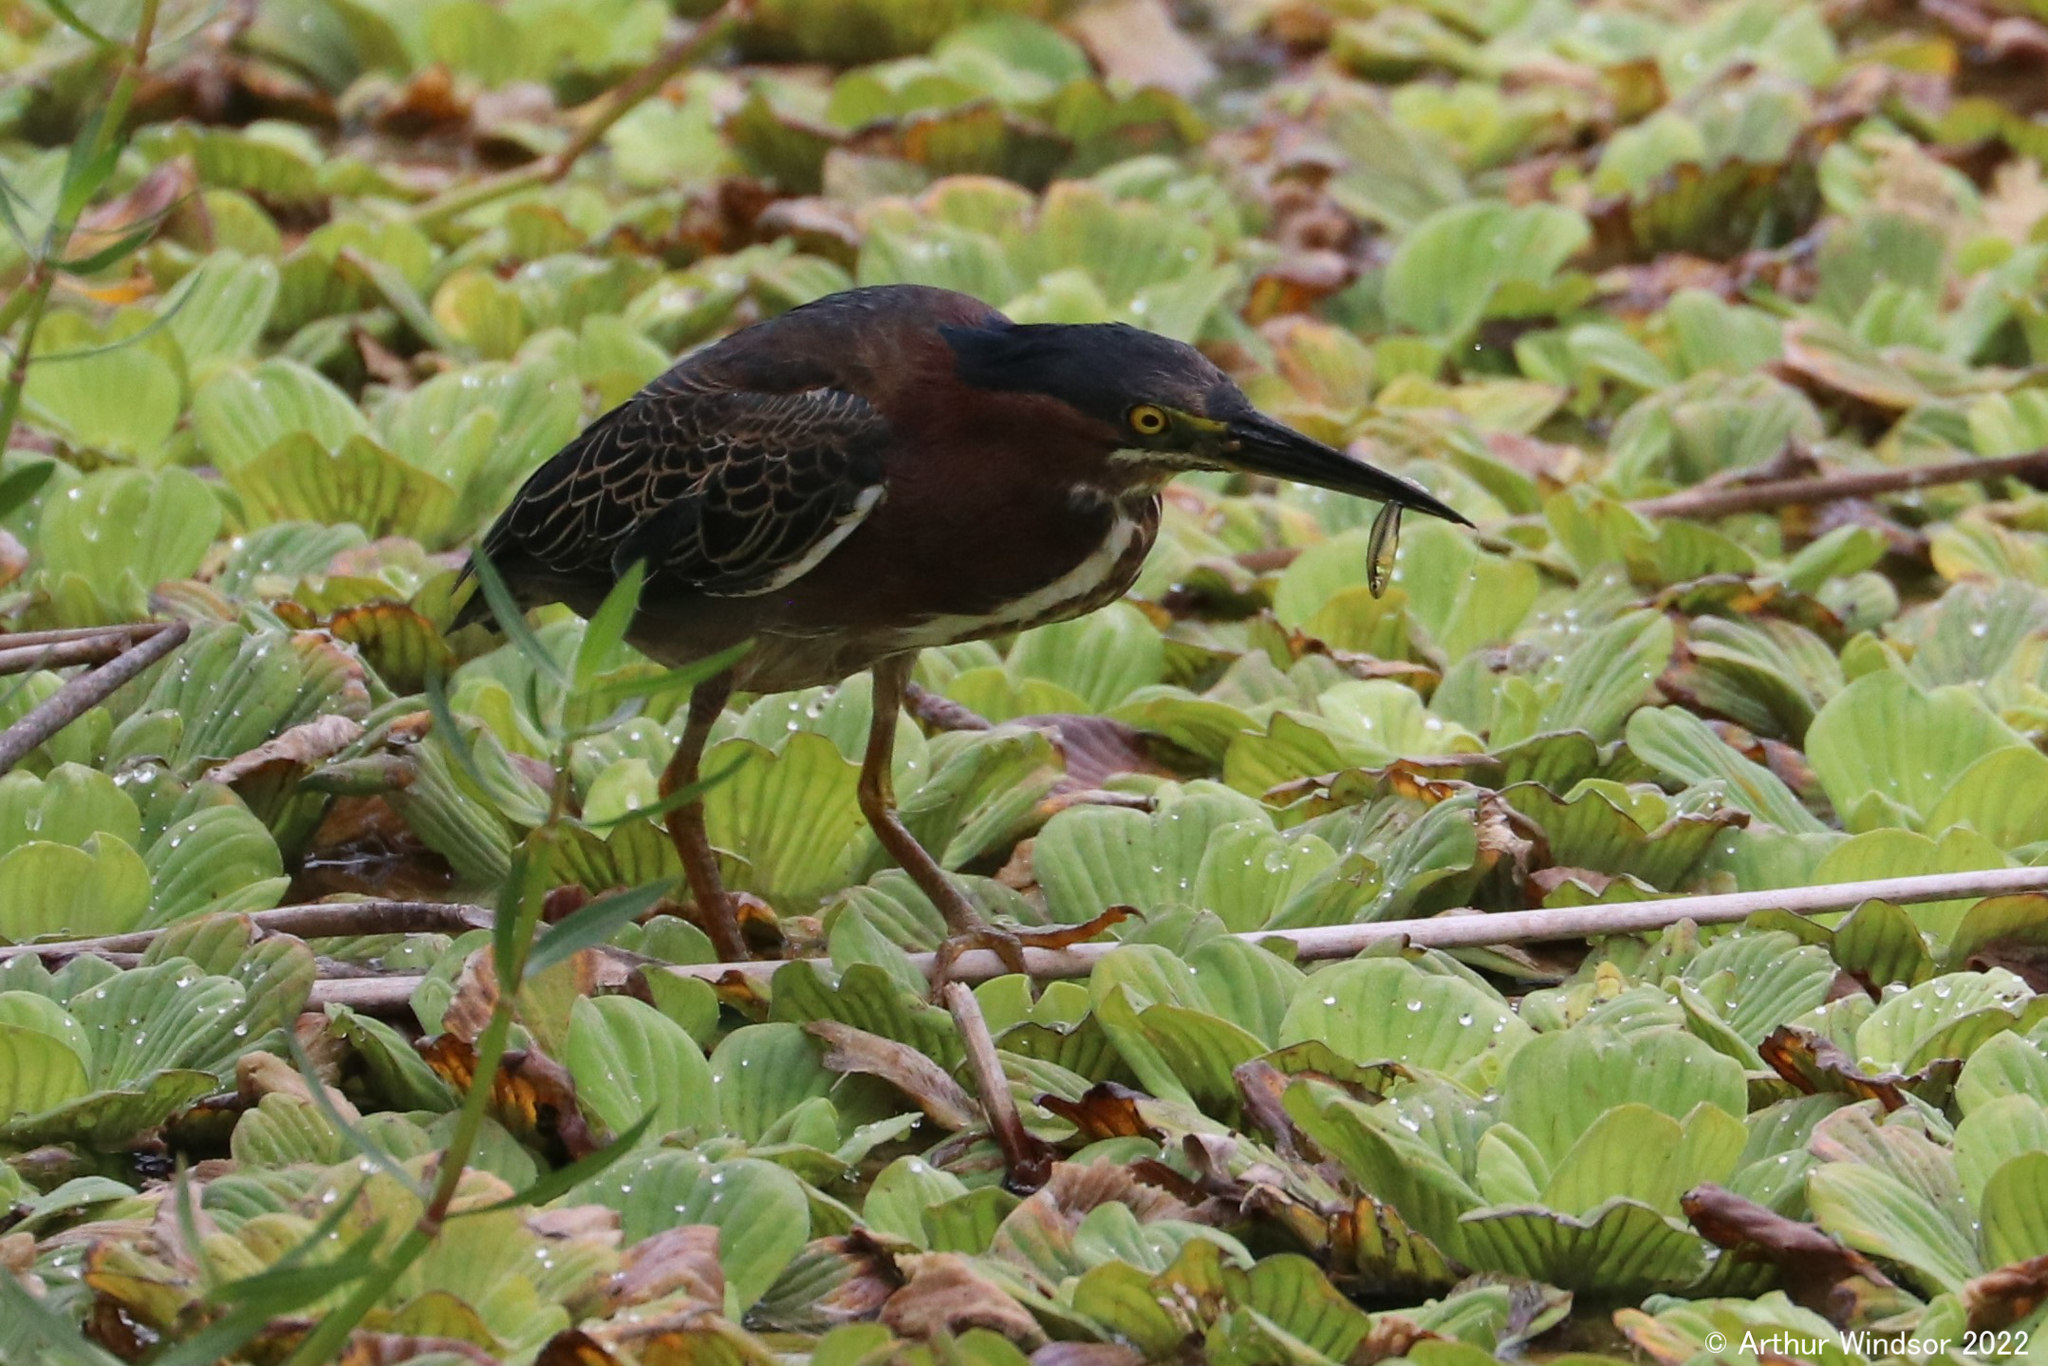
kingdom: Animalia
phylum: Chordata
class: Aves
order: Pelecaniformes
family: Ardeidae
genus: Butorides
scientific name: Butorides virescens
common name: Green heron
